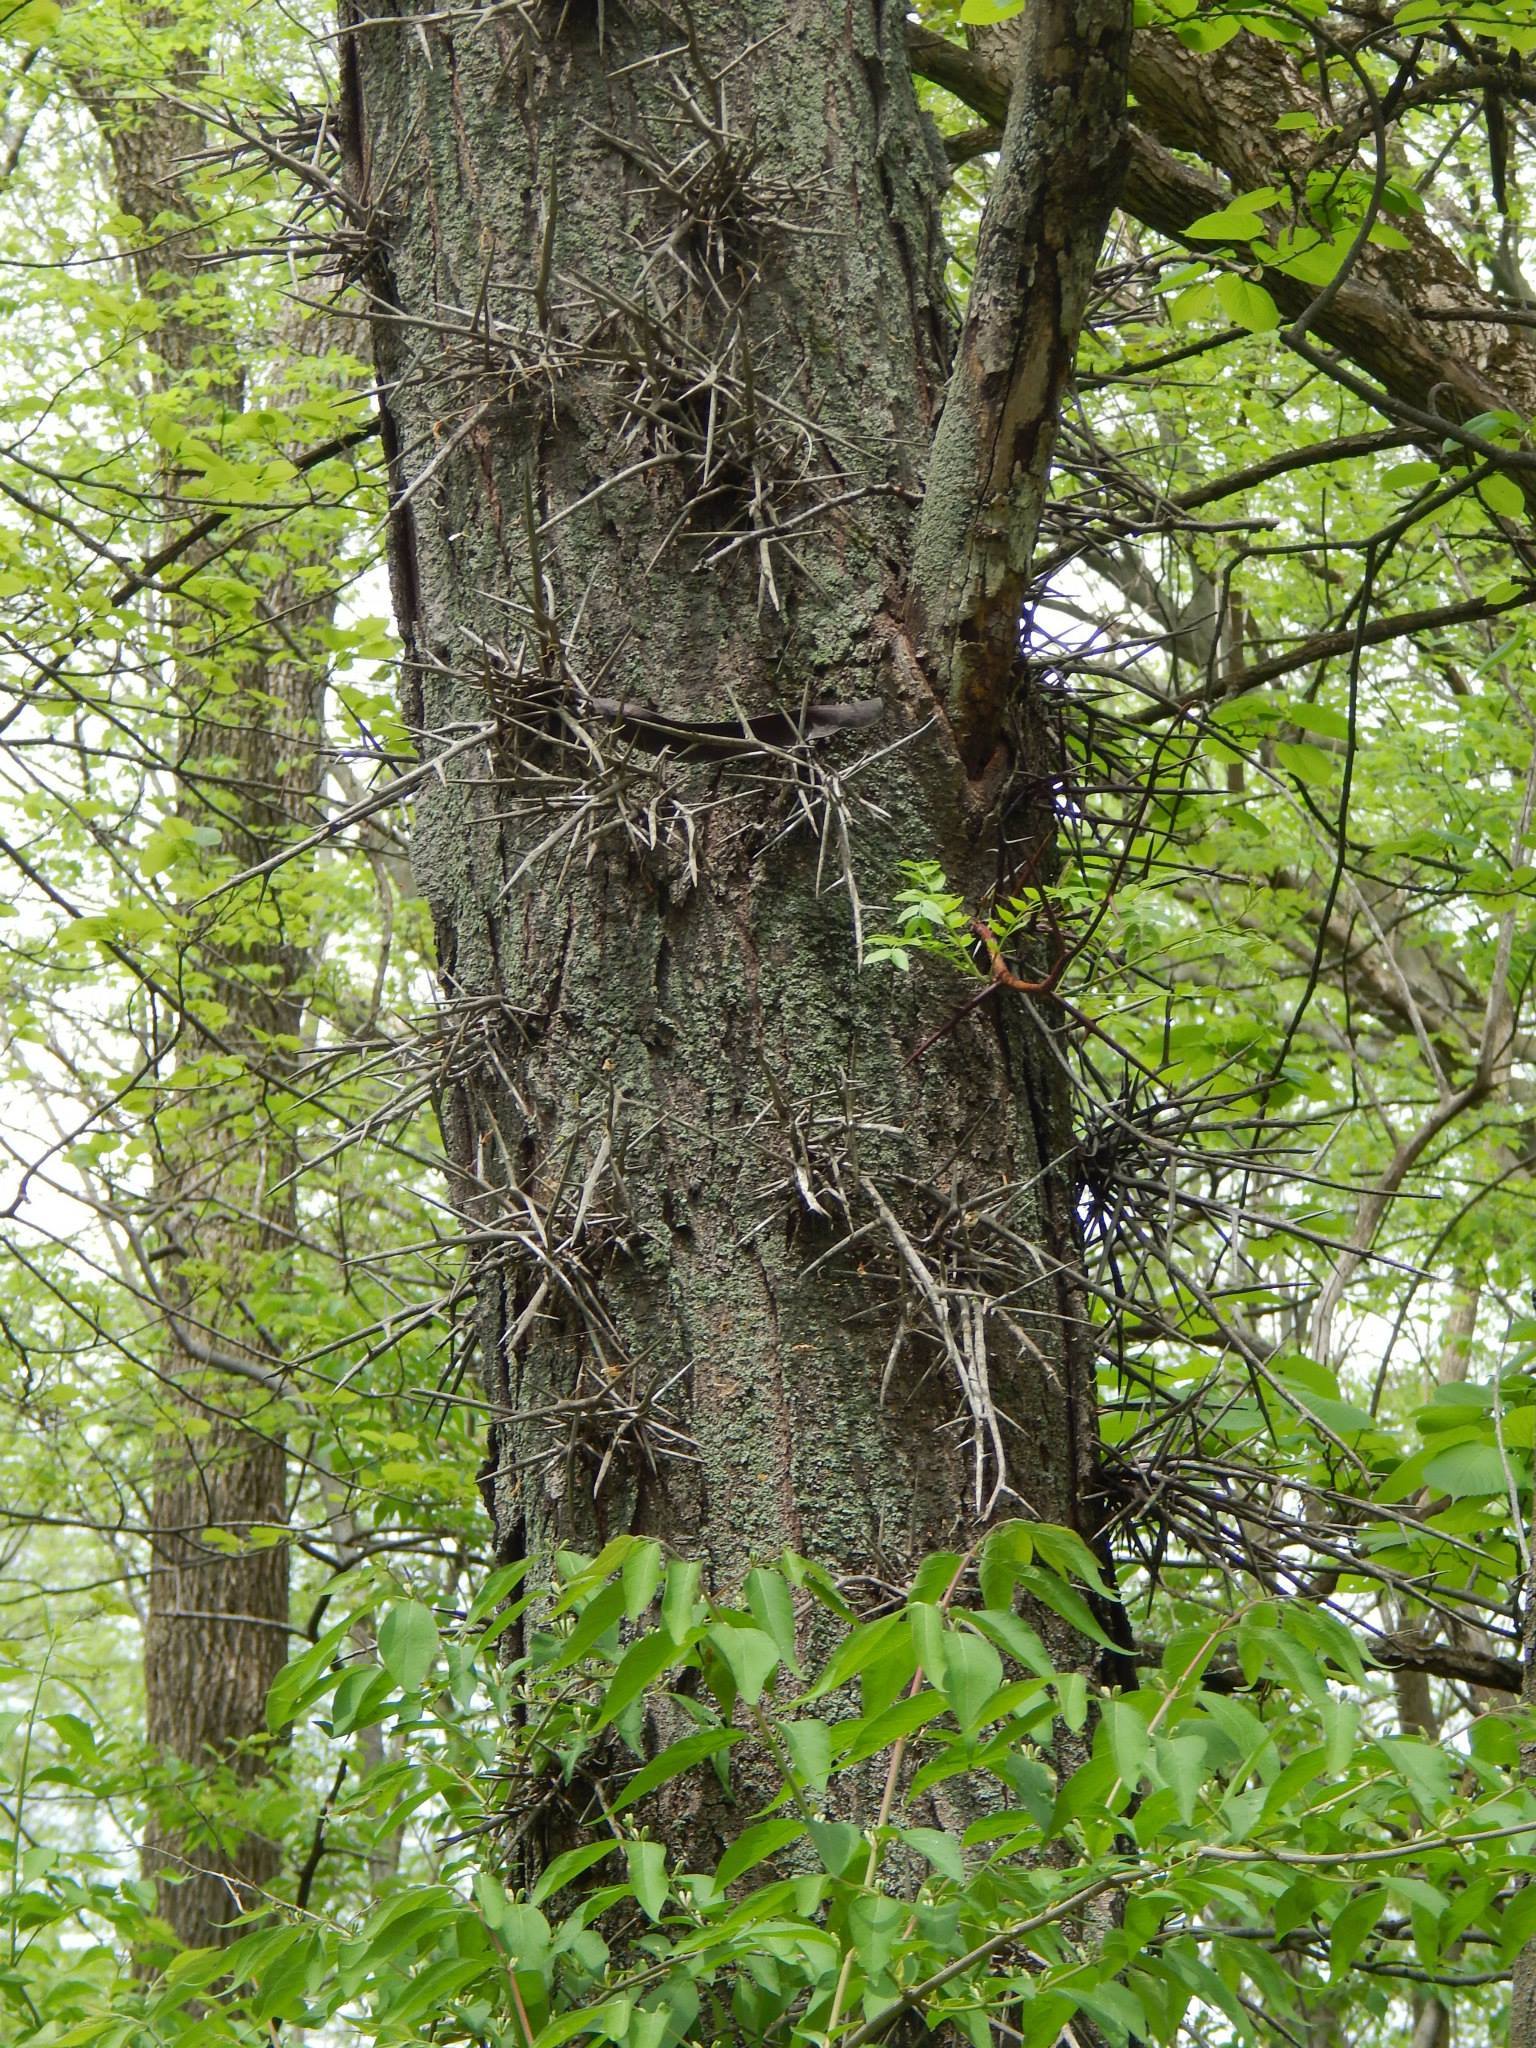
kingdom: Plantae
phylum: Tracheophyta
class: Magnoliopsida
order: Fabales
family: Fabaceae
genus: Gleditsia
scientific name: Gleditsia triacanthos
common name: Common honeylocust
